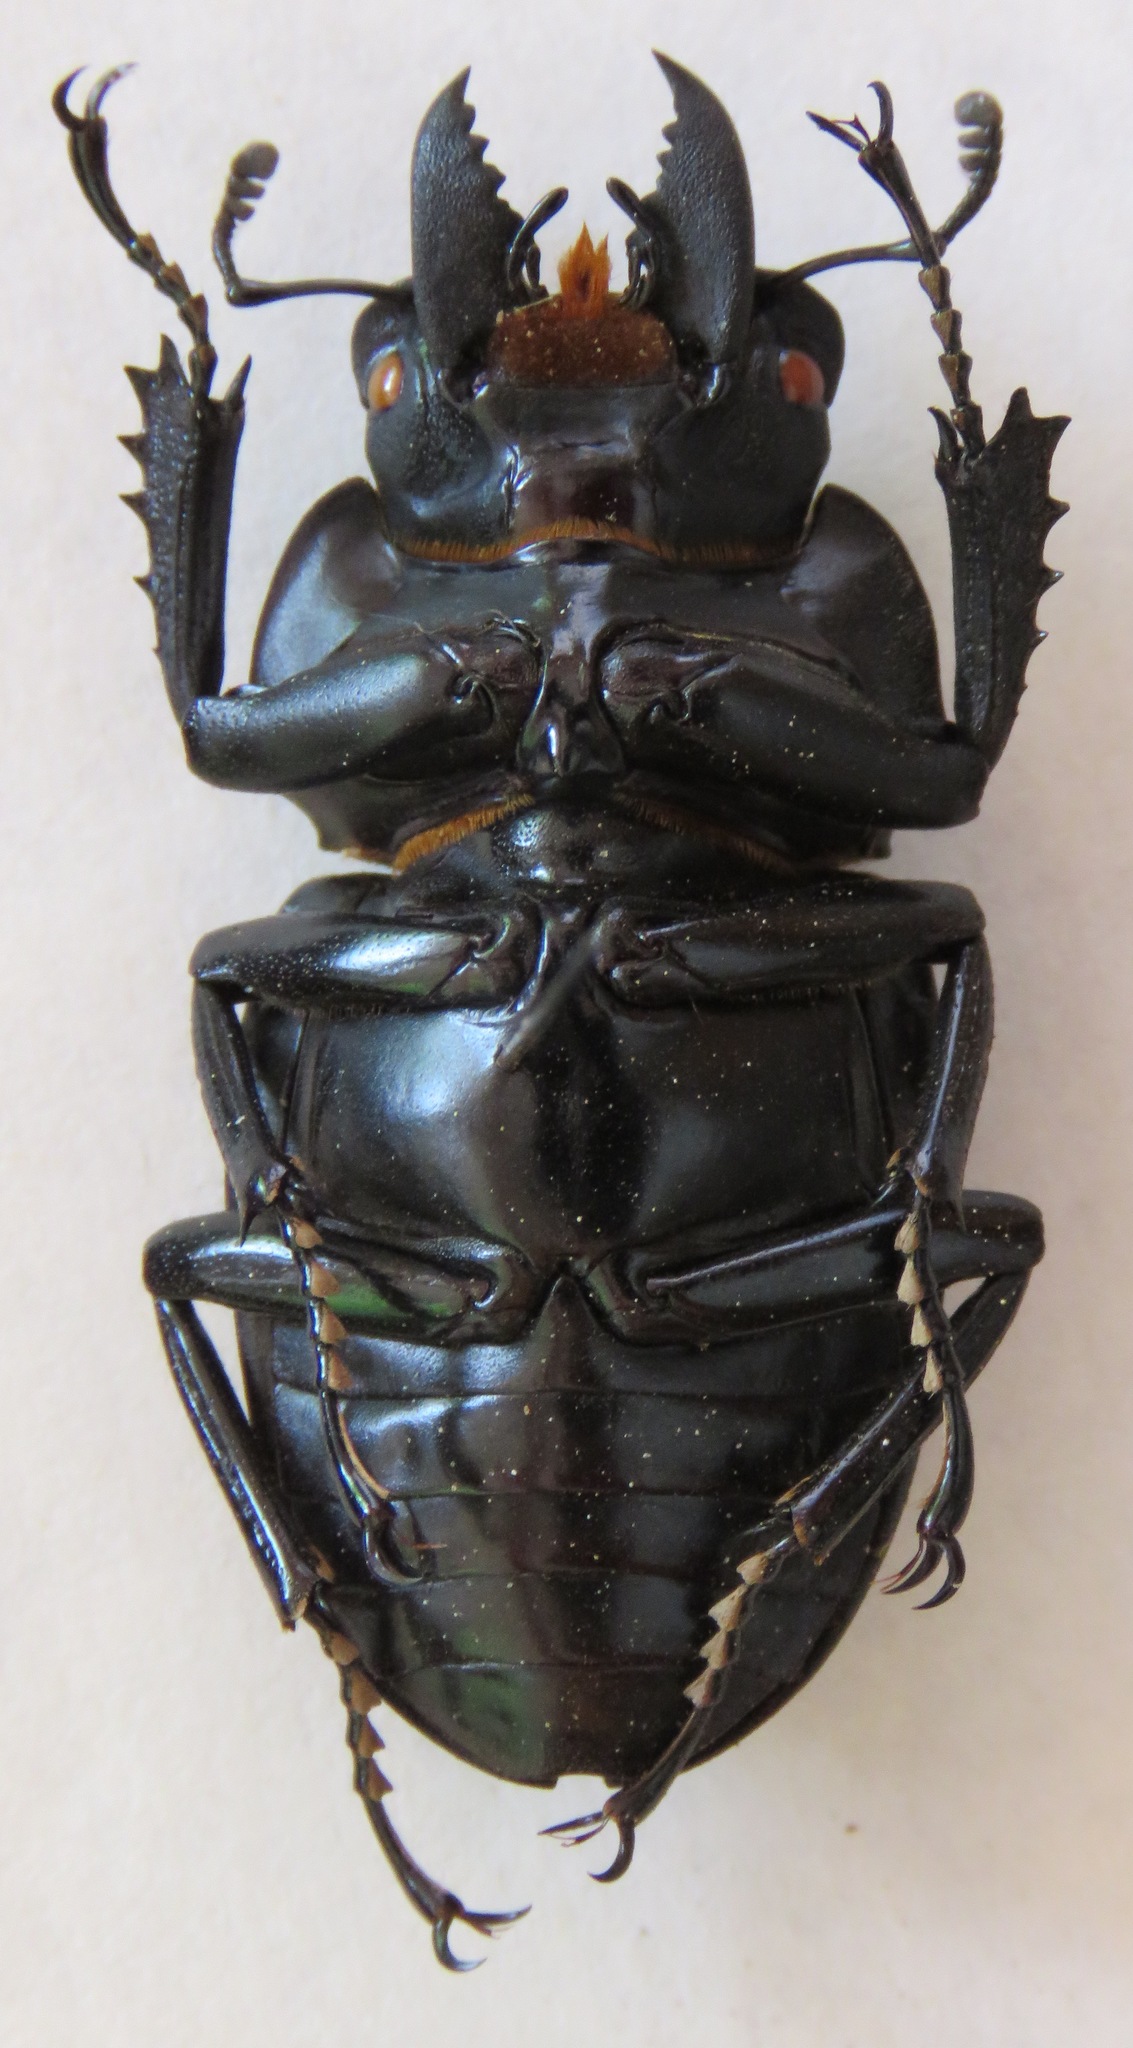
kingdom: Animalia
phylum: Arthropoda
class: Insecta
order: Coleoptera
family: Lucanidae
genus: Neolucanus
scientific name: Neolucanus fiedleri
